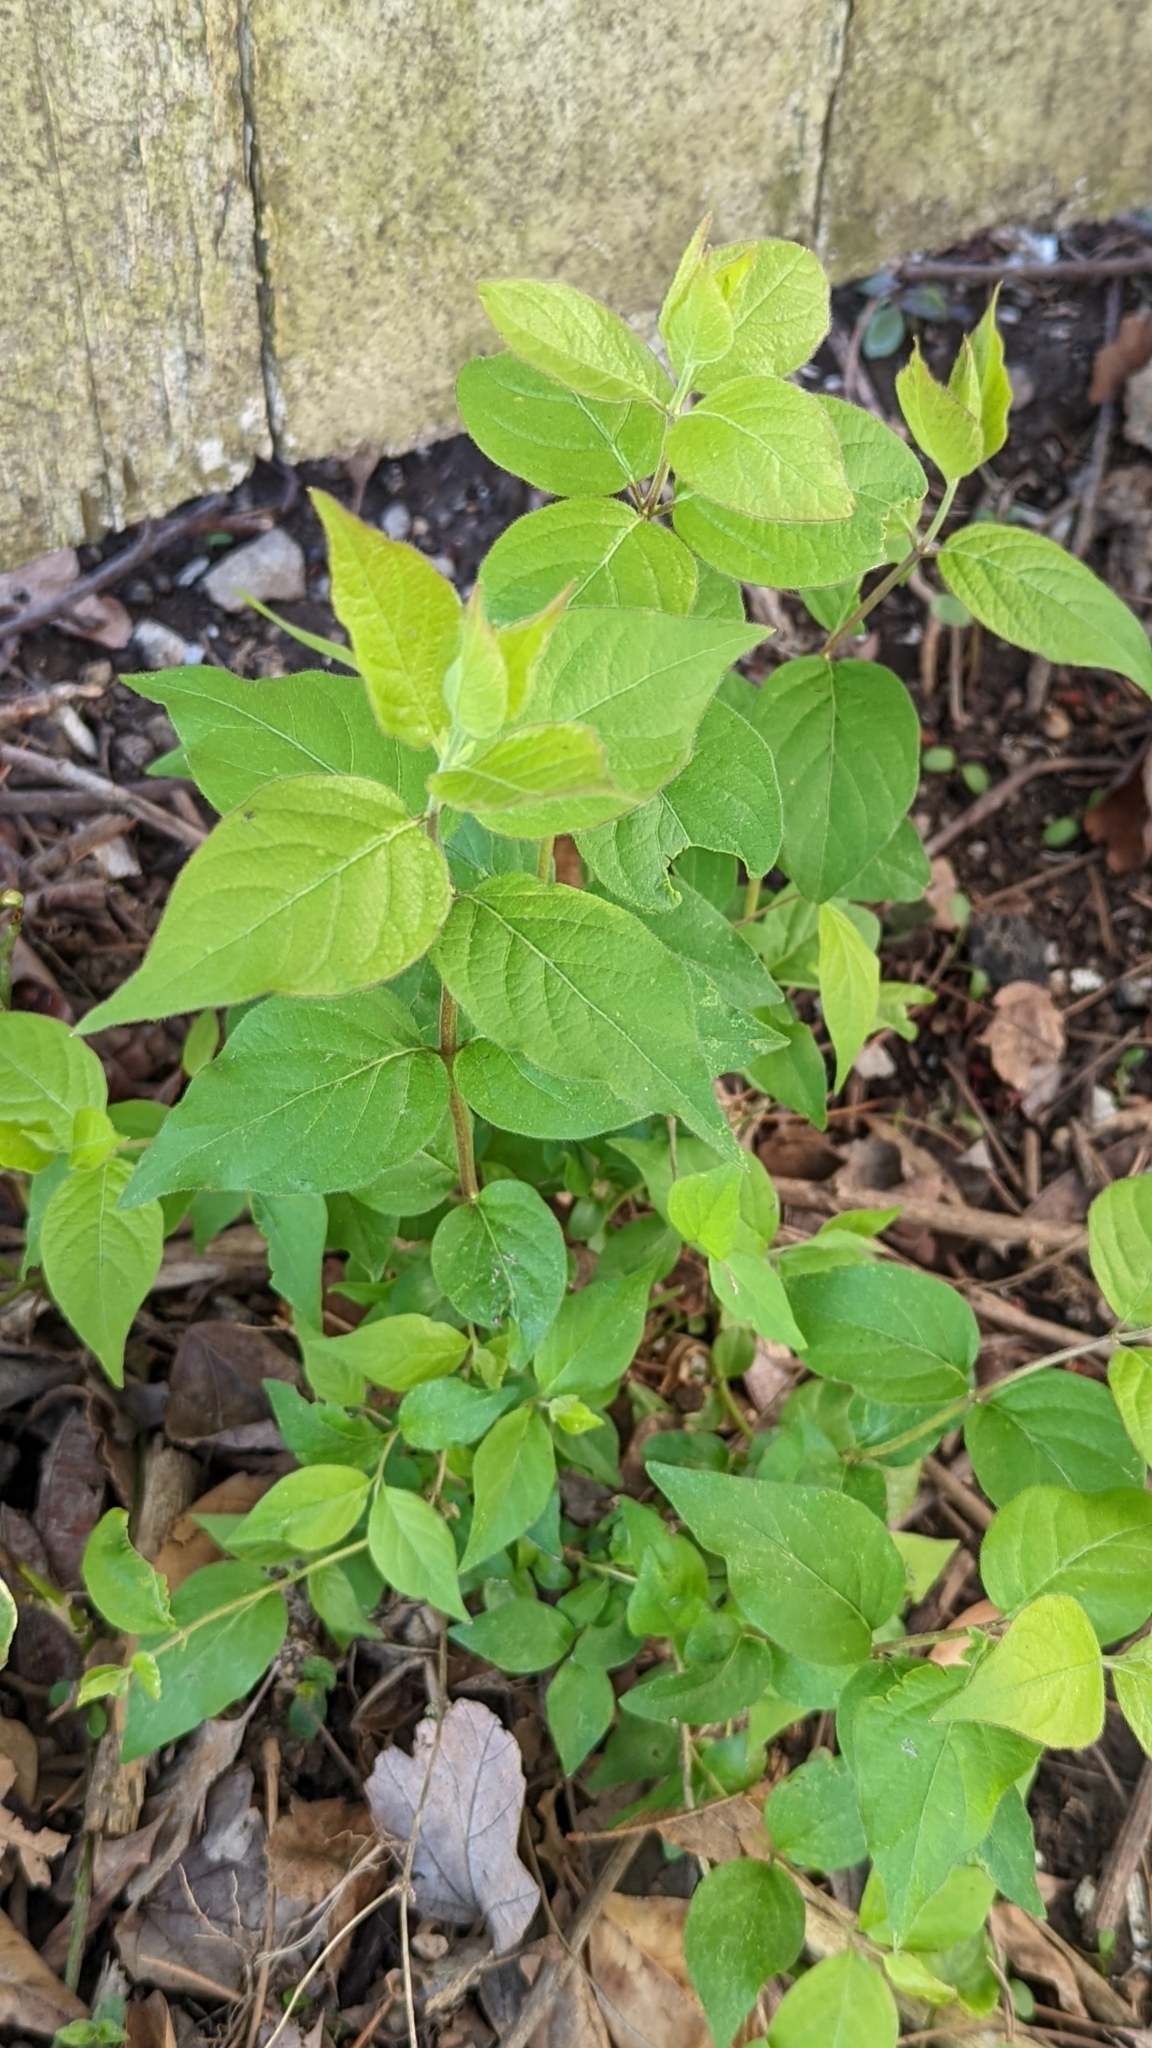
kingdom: Plantae
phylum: Tracheophyta
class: Magnoliopsida
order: Dipsacales
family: Caprifoliaceae
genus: Lonicera
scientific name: Lonicera maackii
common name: Amur honeysuckle
